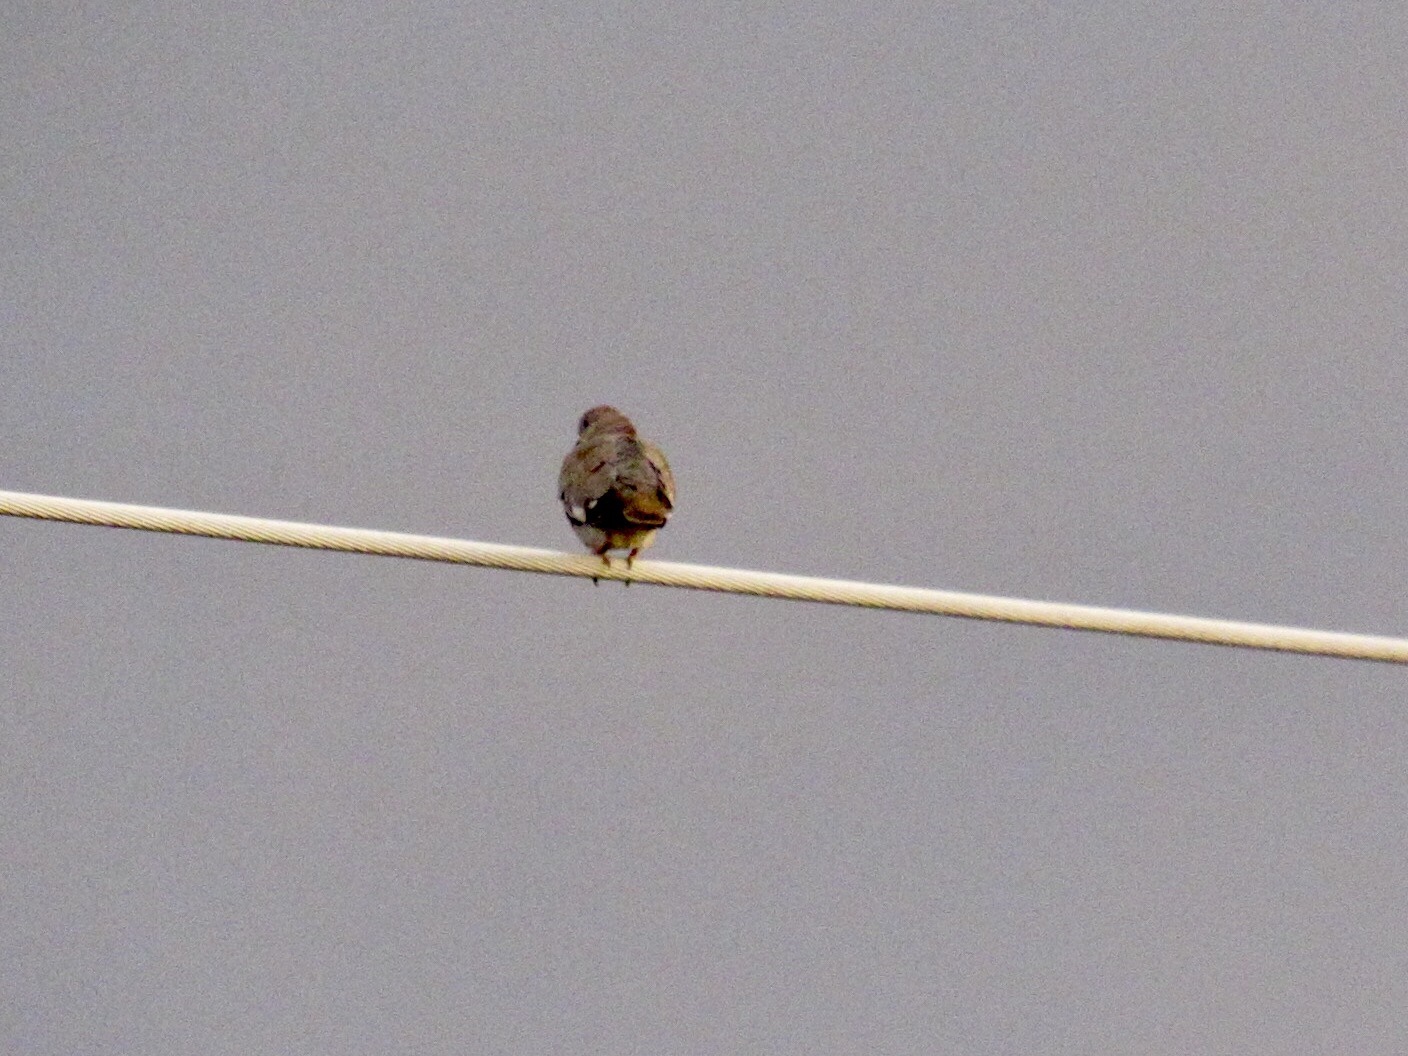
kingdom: Animalia
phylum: Chordata
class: Aves
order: Columbiformes
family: Columbidae
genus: Zenaida
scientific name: Zenaida asiatica
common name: White-winged dove
